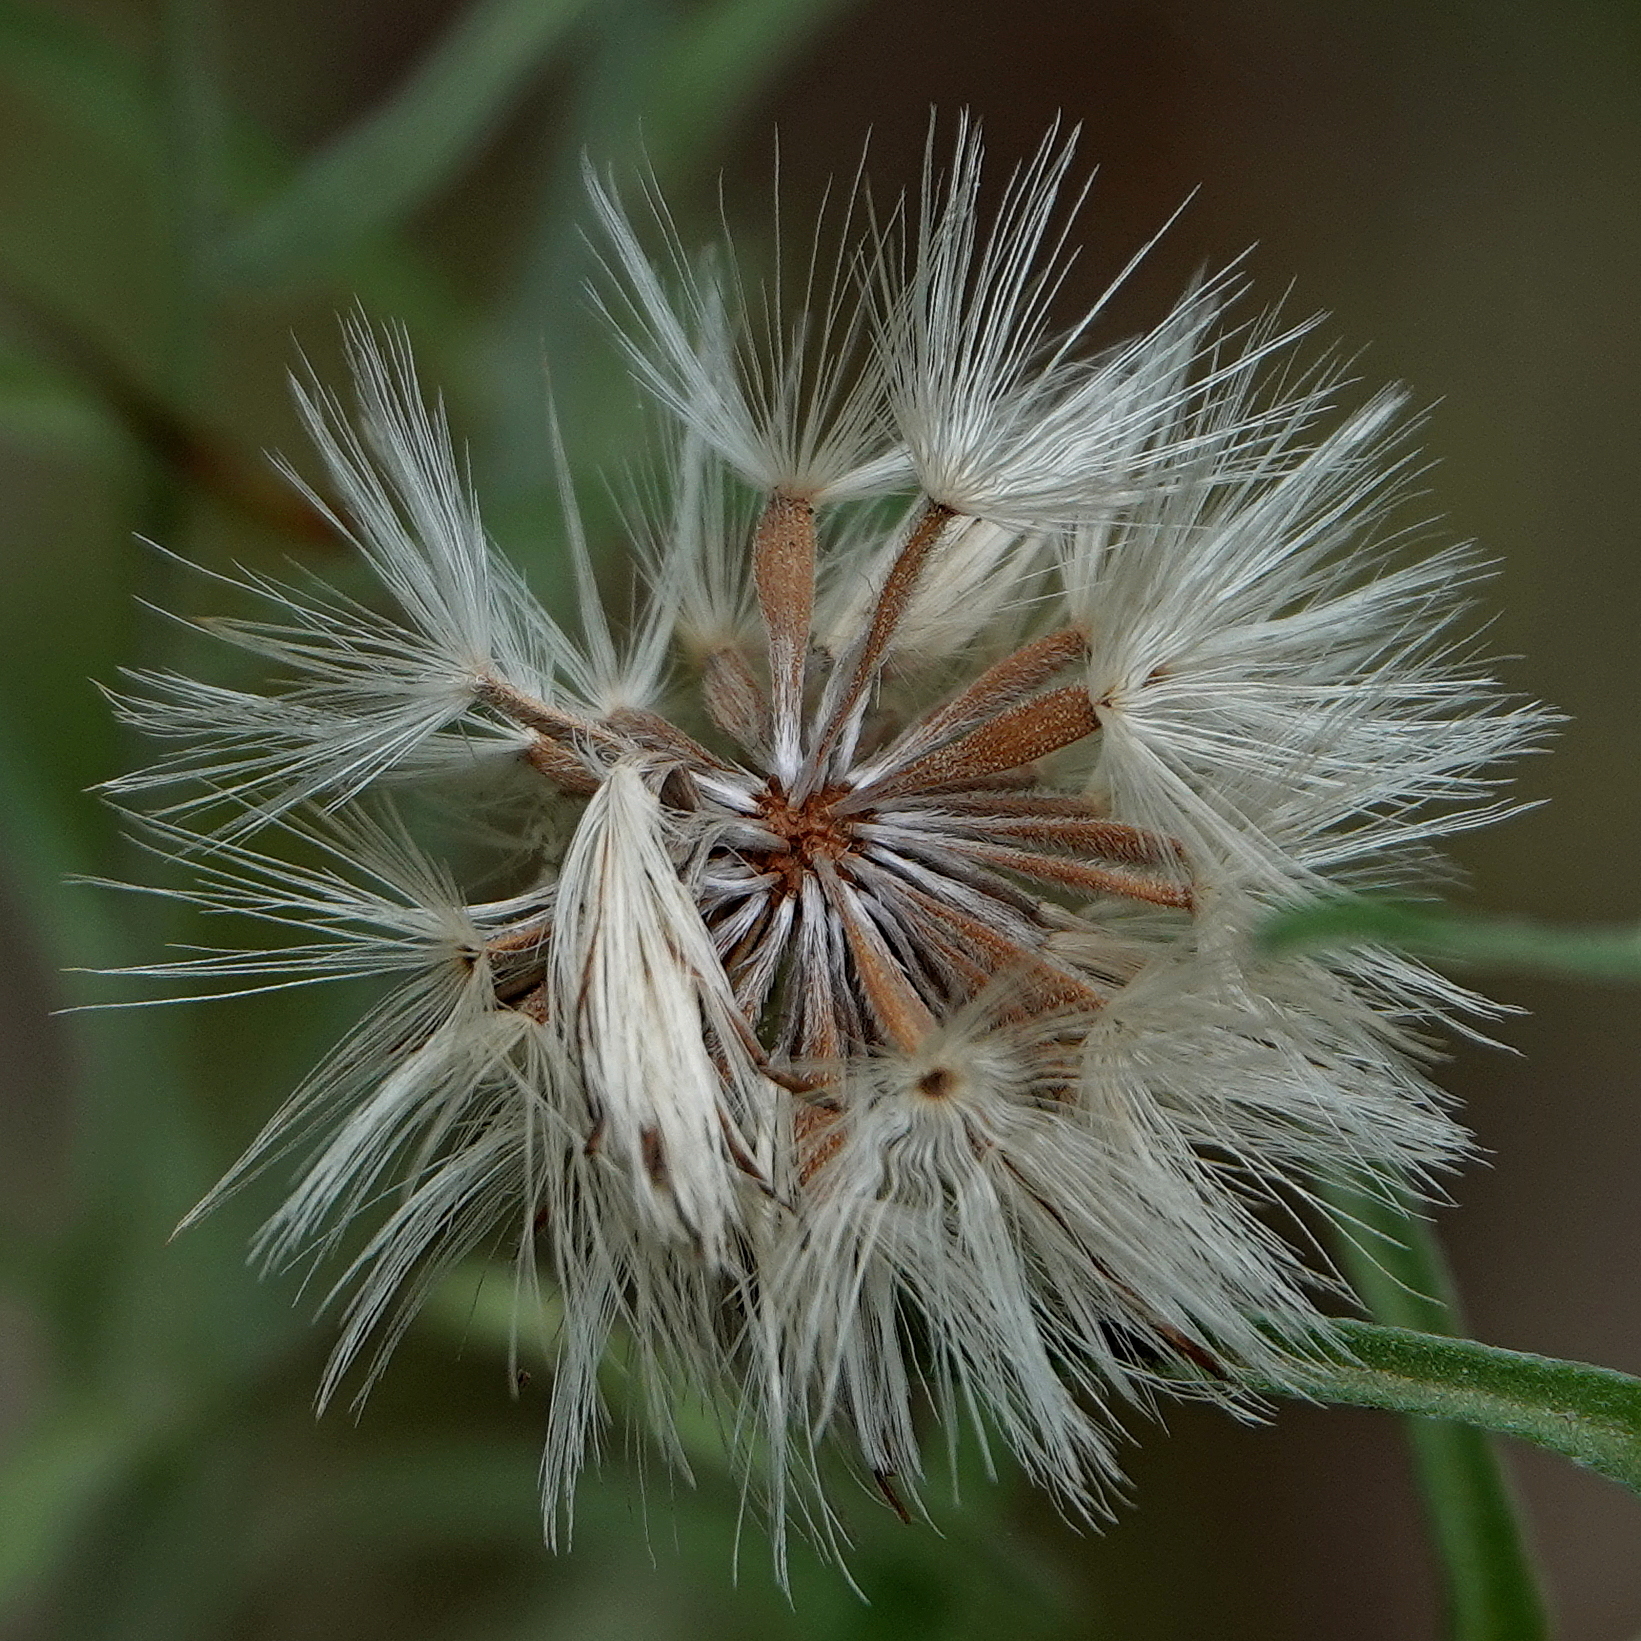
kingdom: Plantae
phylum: Tracheophyta
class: Magnoliopsida
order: Asterales
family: Asteraceae
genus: Vittadinia
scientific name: Vittadinia gracilis
